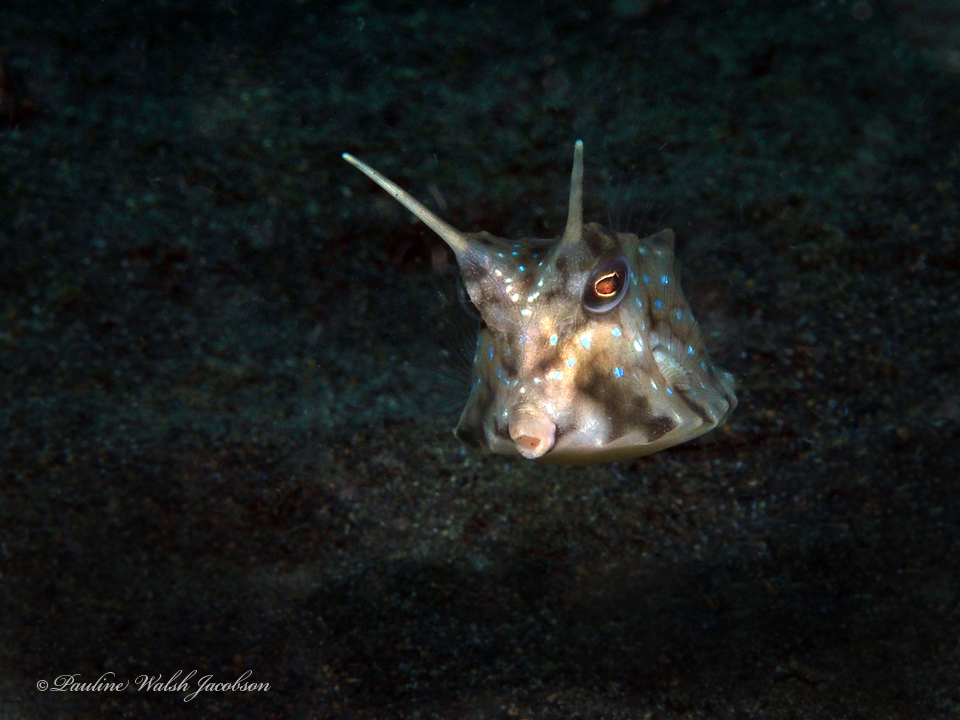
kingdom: Animalia
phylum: Chordata
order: Tetraodontiformes
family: Ostraciidae
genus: Lactoria
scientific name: Lactoria cornuta
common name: Longhorn cowfish
